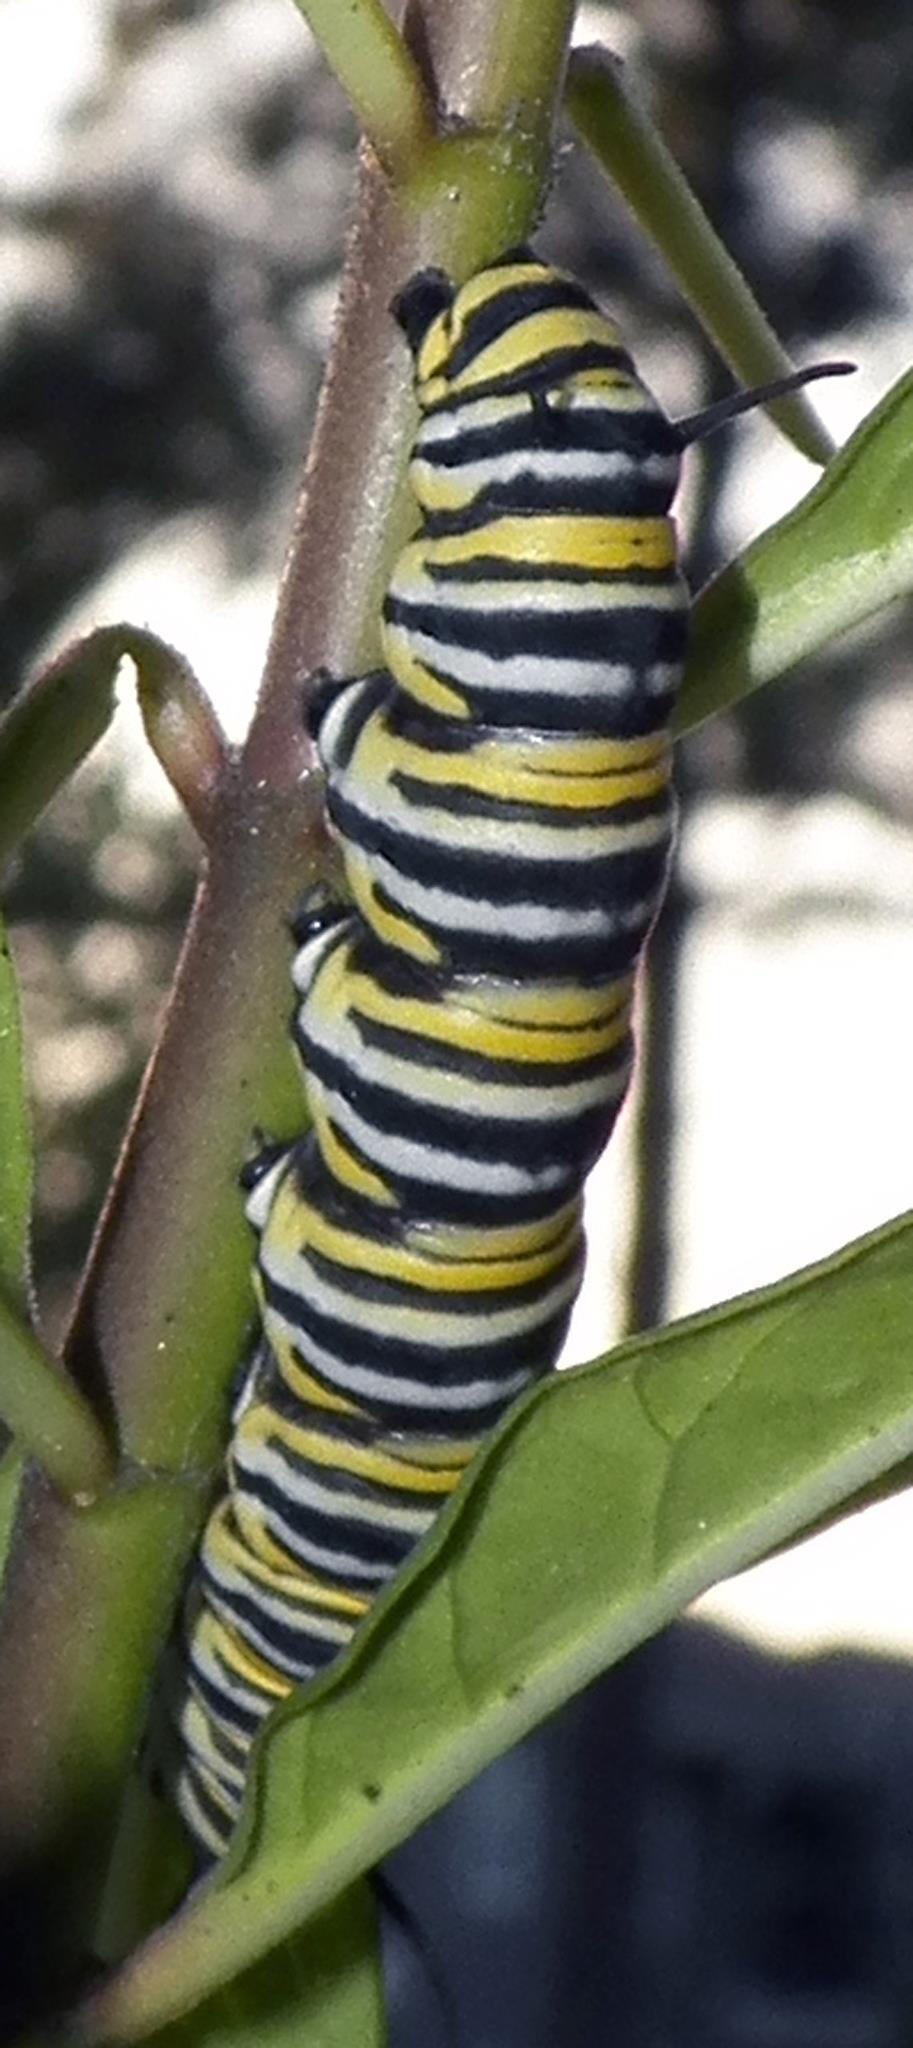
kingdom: Animalia
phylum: Arthropoda
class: Insecta
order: Lepidoptera
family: Nymphalidae
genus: Danaus
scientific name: Danaus plexippus
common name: Monarch
